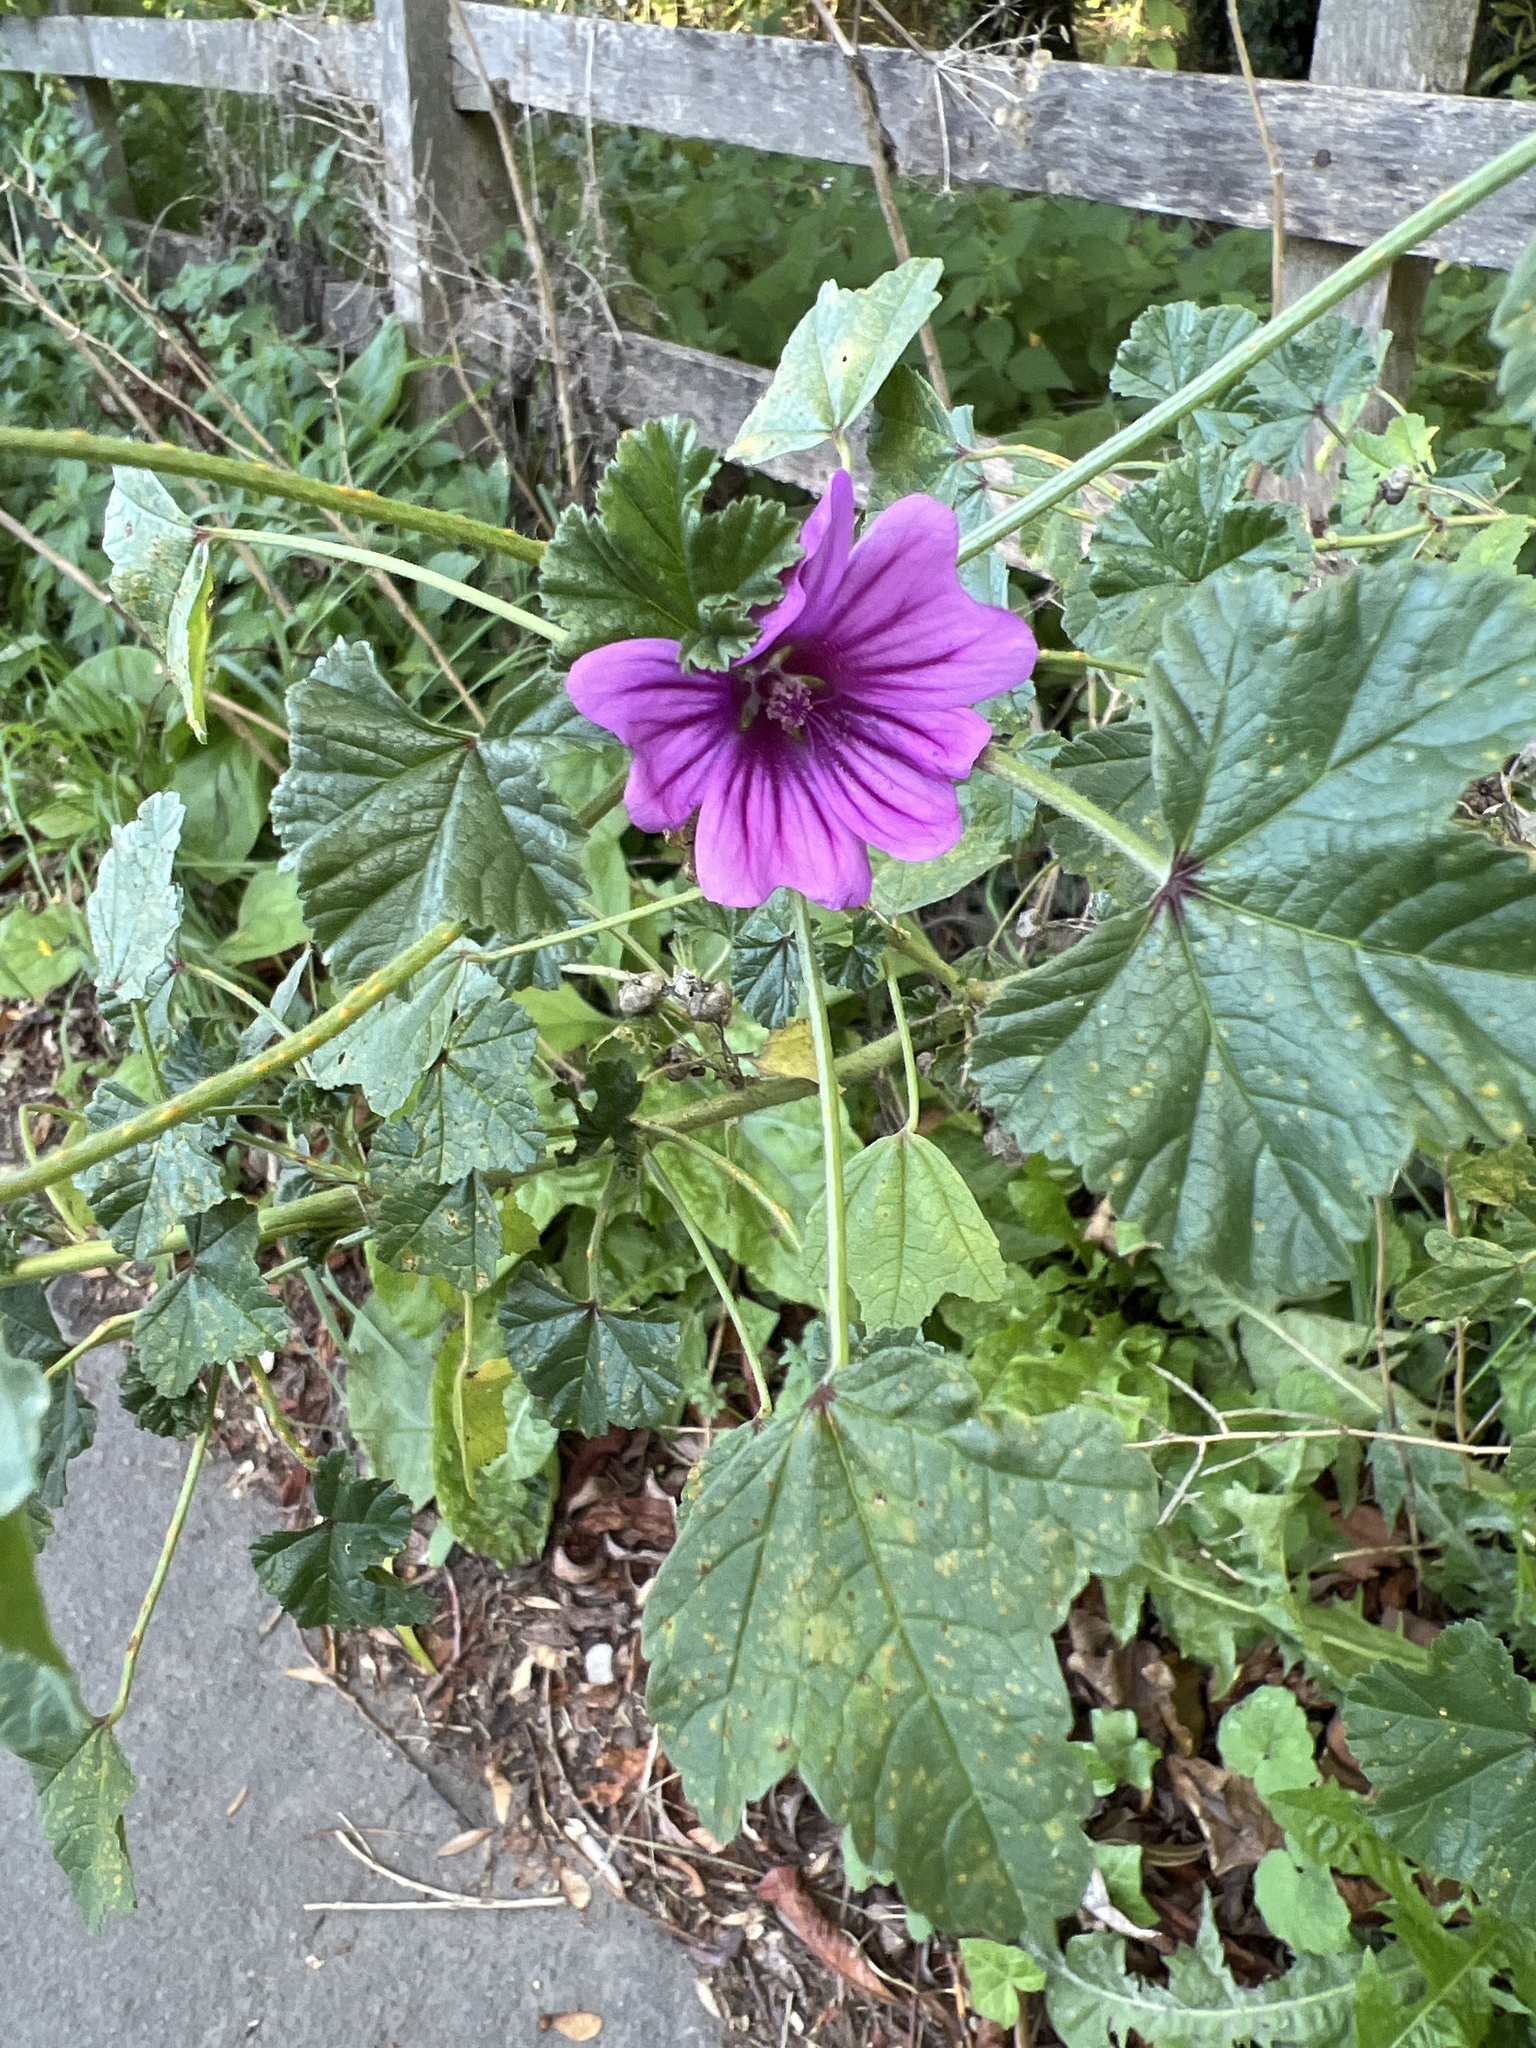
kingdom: Plantae
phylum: Tracheophyta
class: Magnoliopsida
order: Malvales
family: Malvaceae
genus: Malva
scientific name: Malva sylvestris
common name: Common mallow
